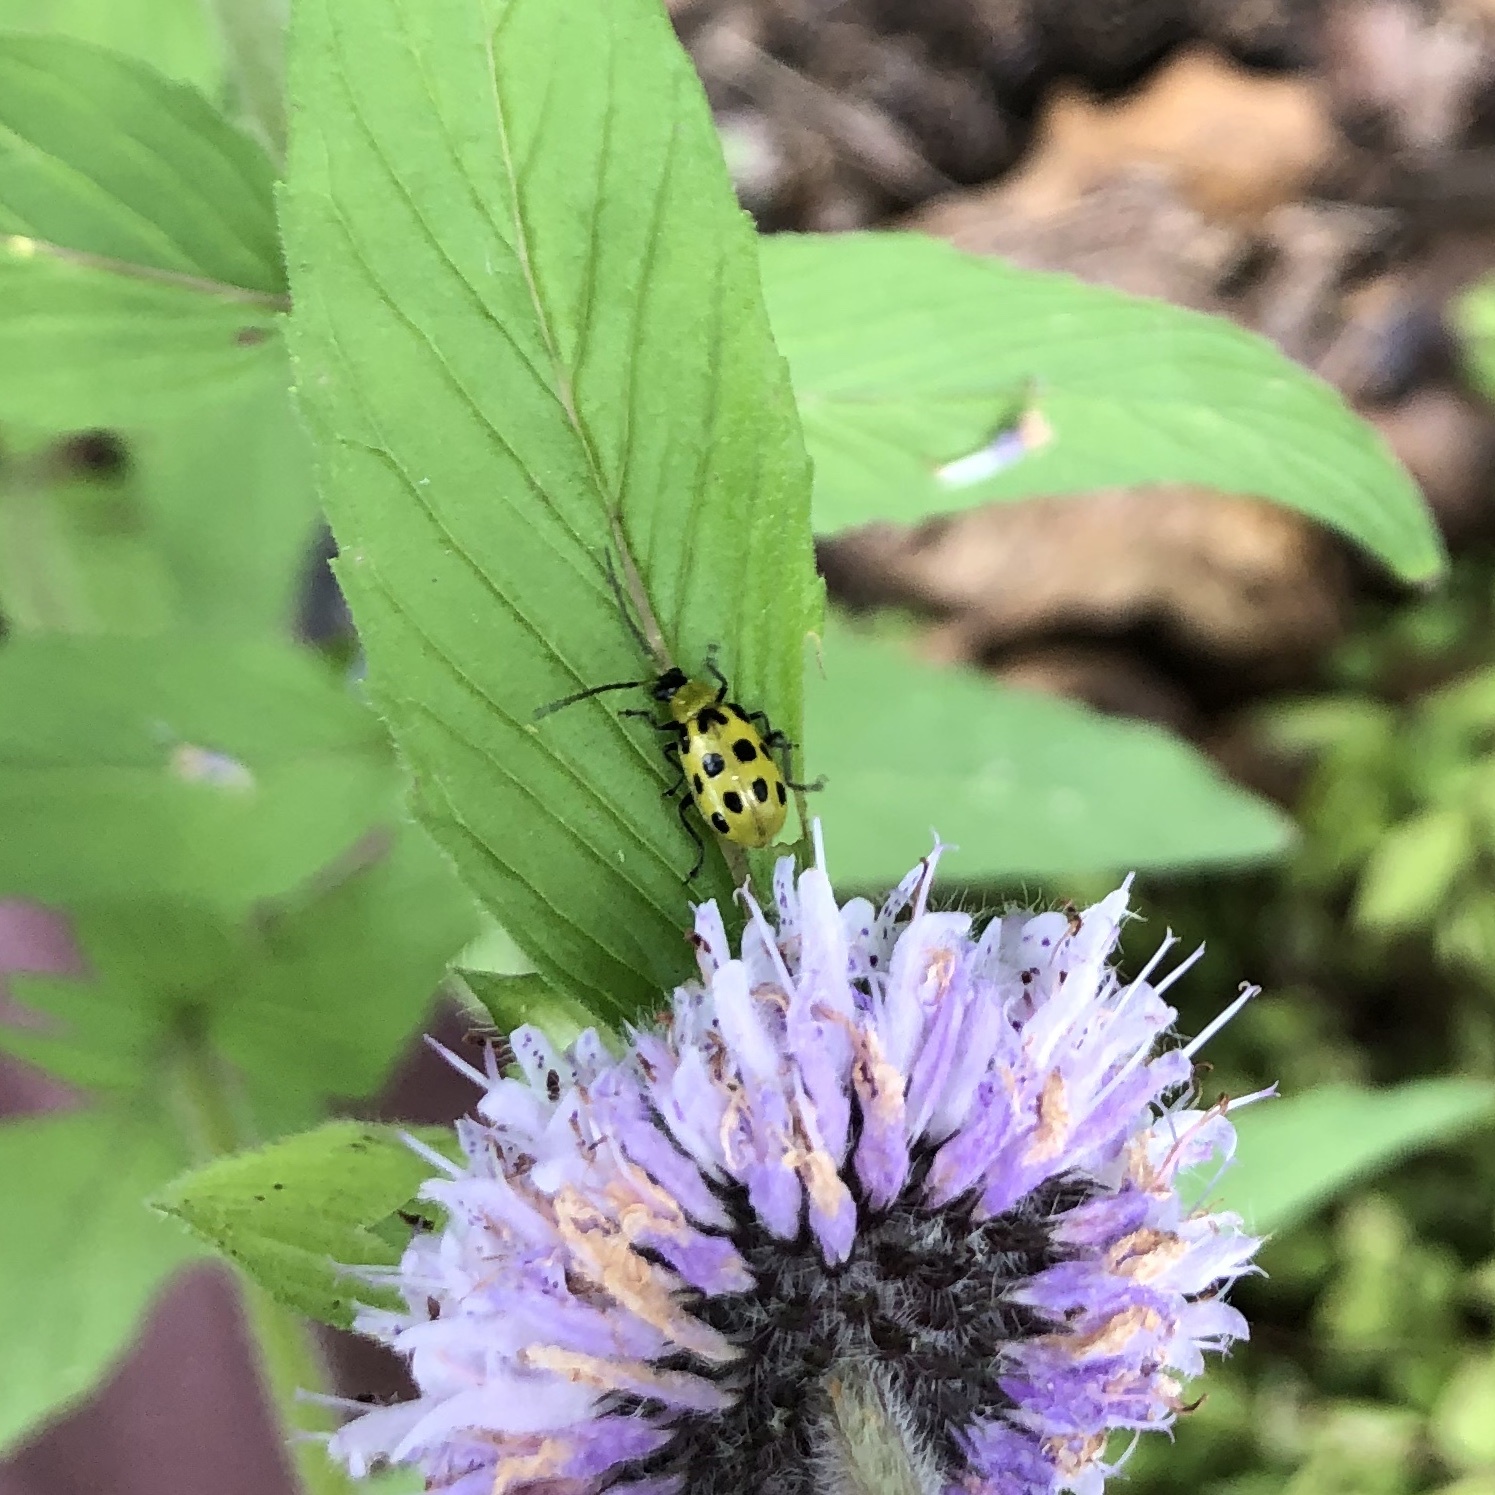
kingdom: Animalia
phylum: Arthropoda
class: Insecta
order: Coleoptera
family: Chrysomelidae
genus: Diabrotica
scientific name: Diabrotica undecimpunctata
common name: Spotted cucumber beetle
